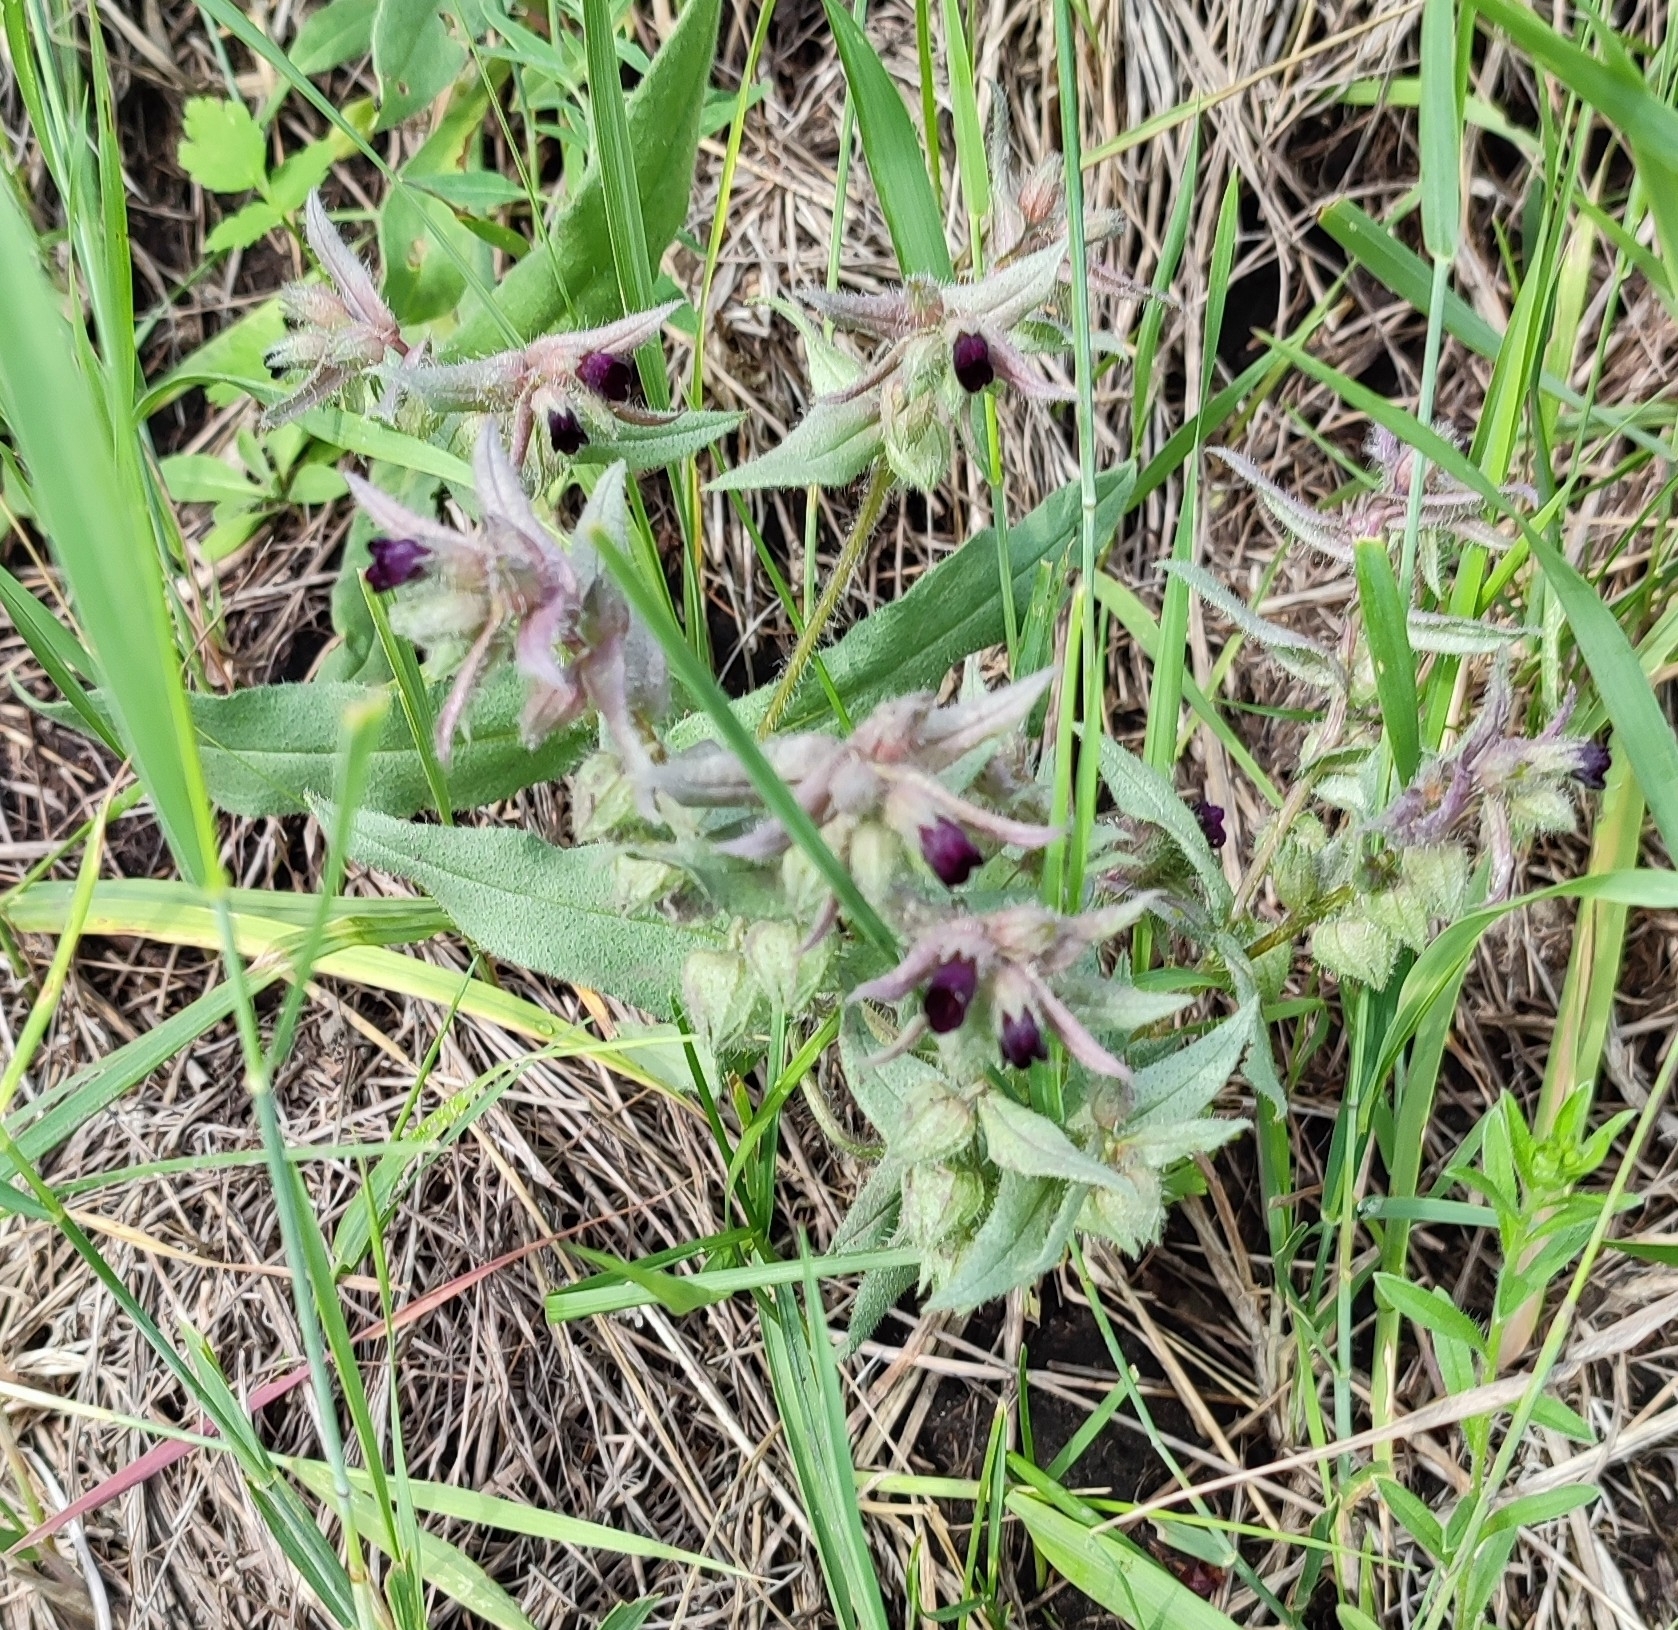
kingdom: Plantae
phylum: Tracheophyta
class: Magnoliopsida
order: Boraginales
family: Boraginaceae
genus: Nonea
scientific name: Nonea pulla
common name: Brown nonea
